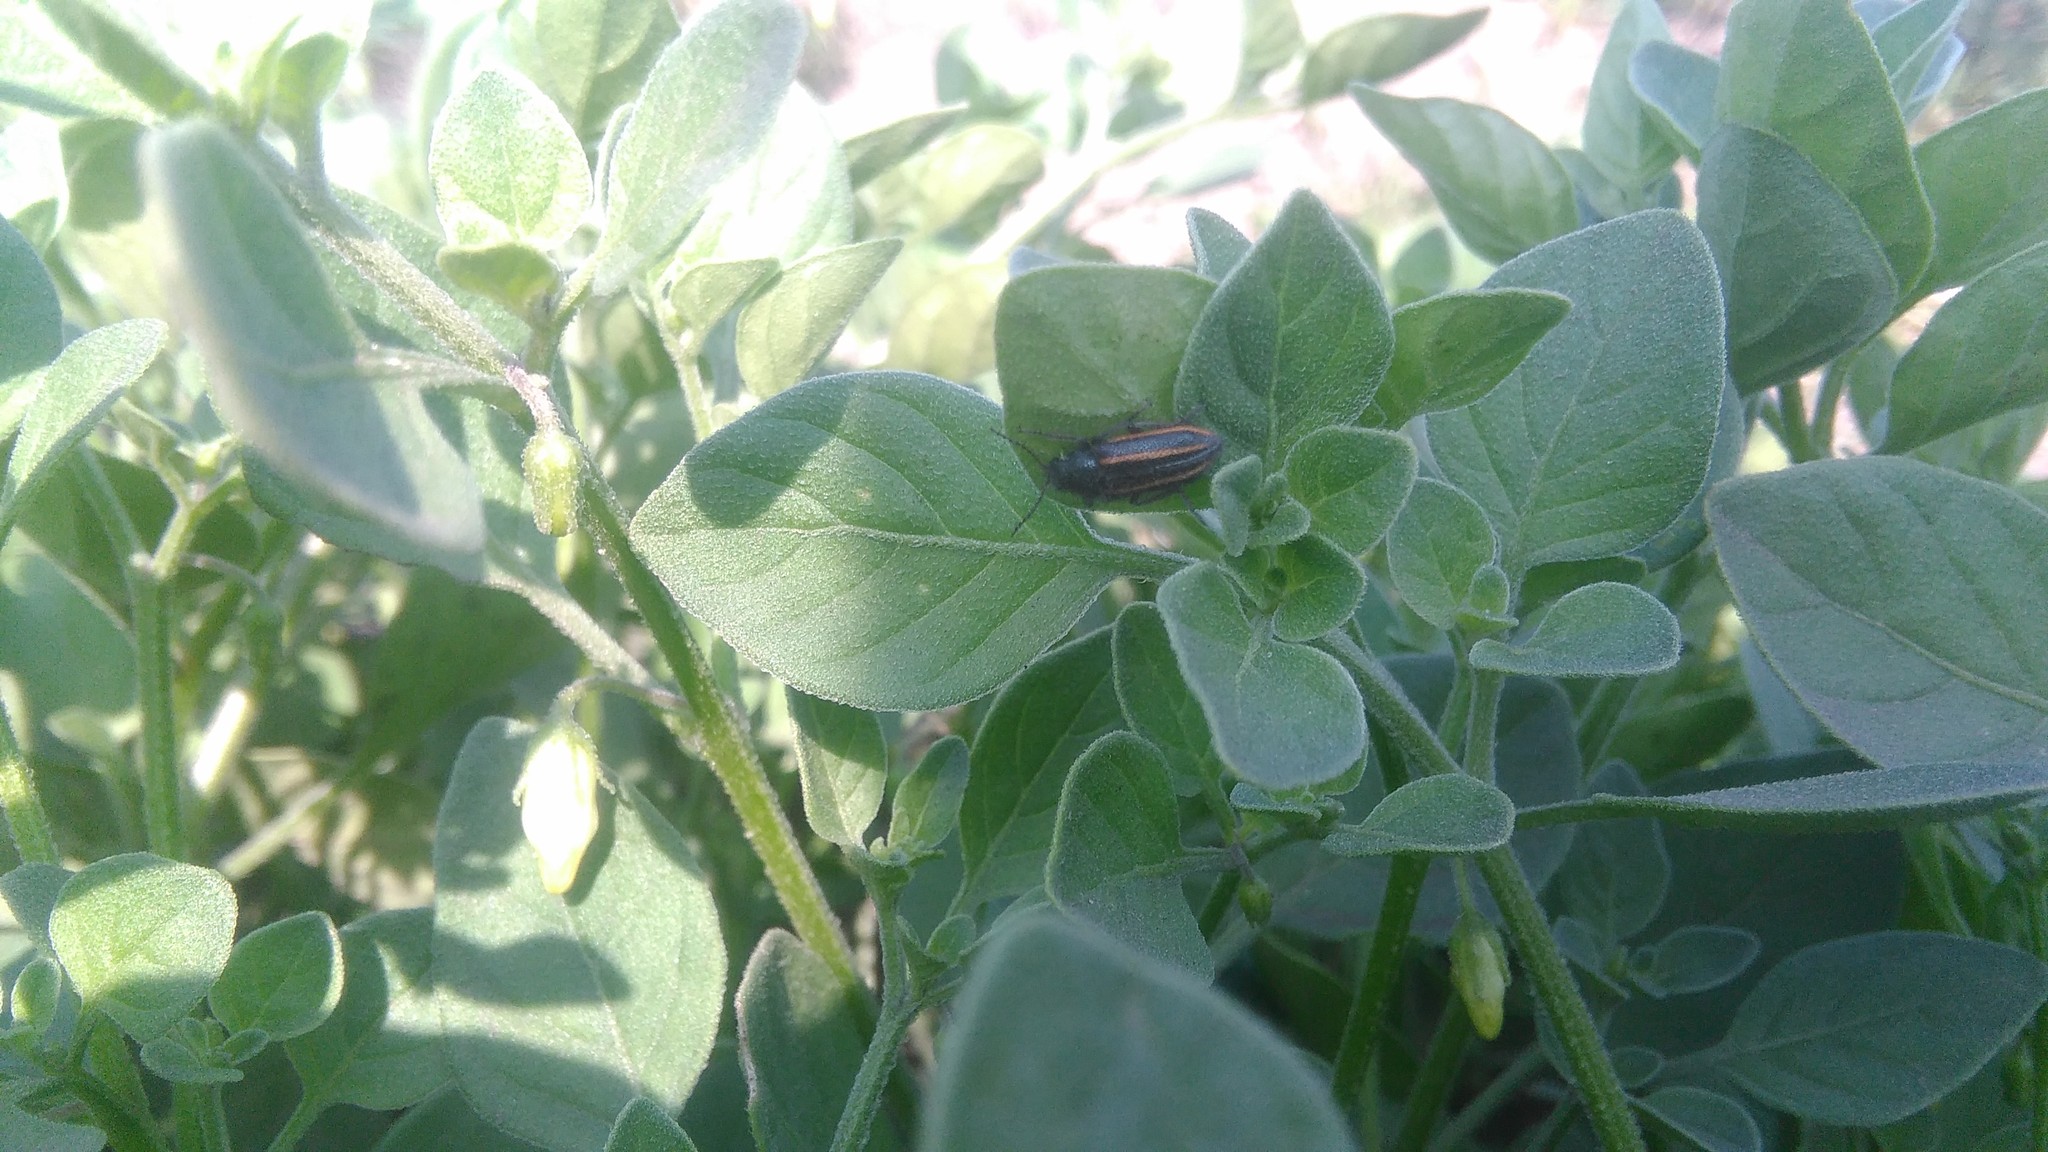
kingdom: Animalia
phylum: Arthropoda
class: Insecta
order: Coleoptera
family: Melyridae
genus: Astylus
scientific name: Astylus
